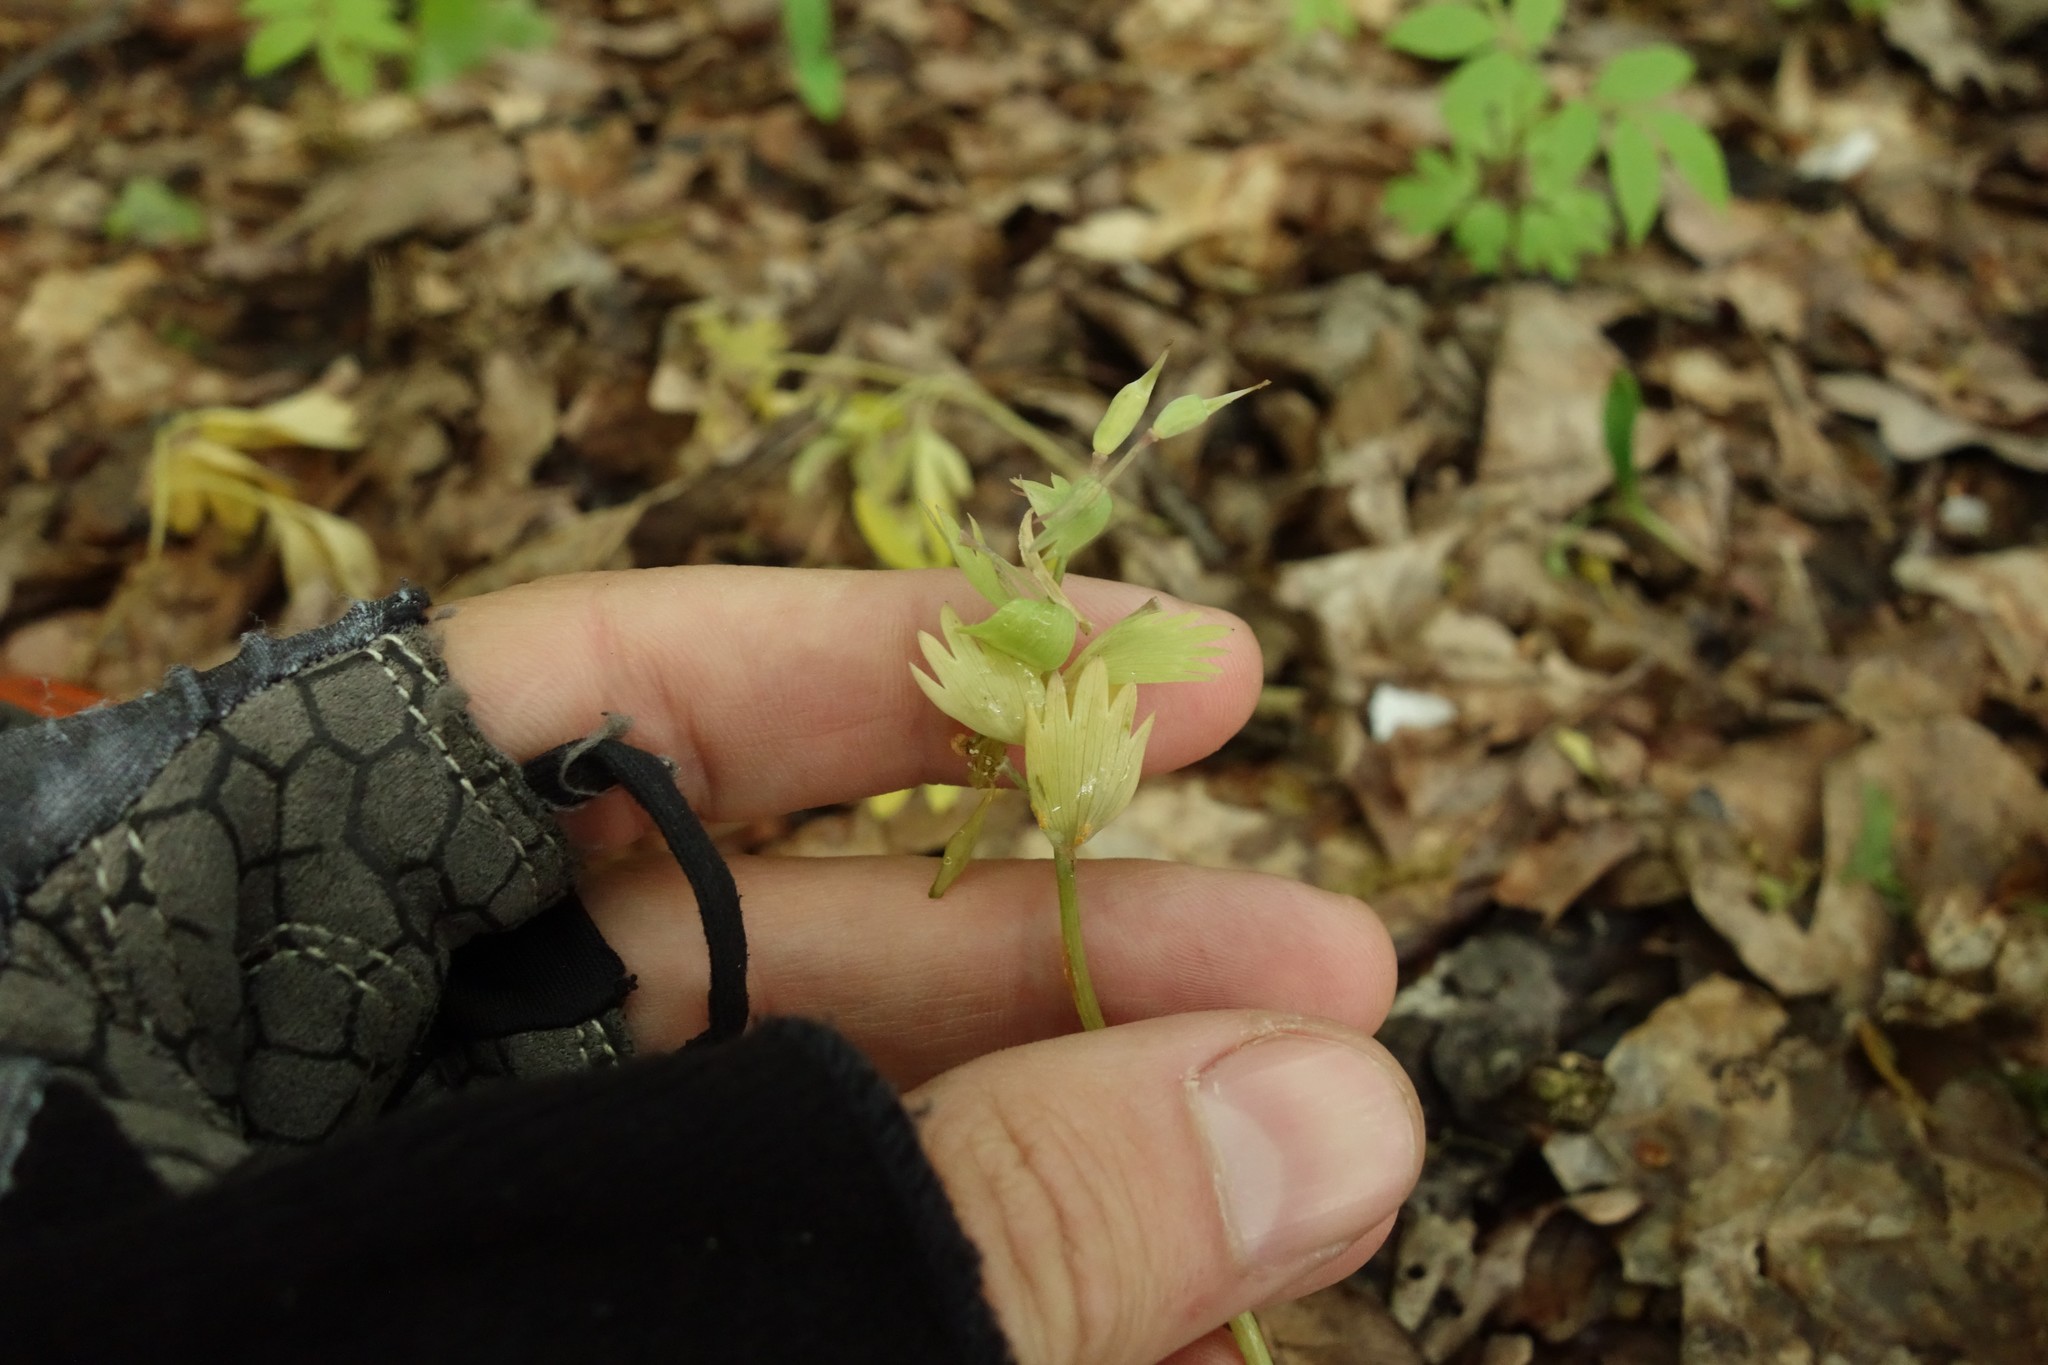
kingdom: Plantae
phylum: Tracheophyta
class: Magnoliopsida
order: Ranunculales
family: Papaveraceae
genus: Corydalis
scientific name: Corydalis solida
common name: Bird-in-a-bush
